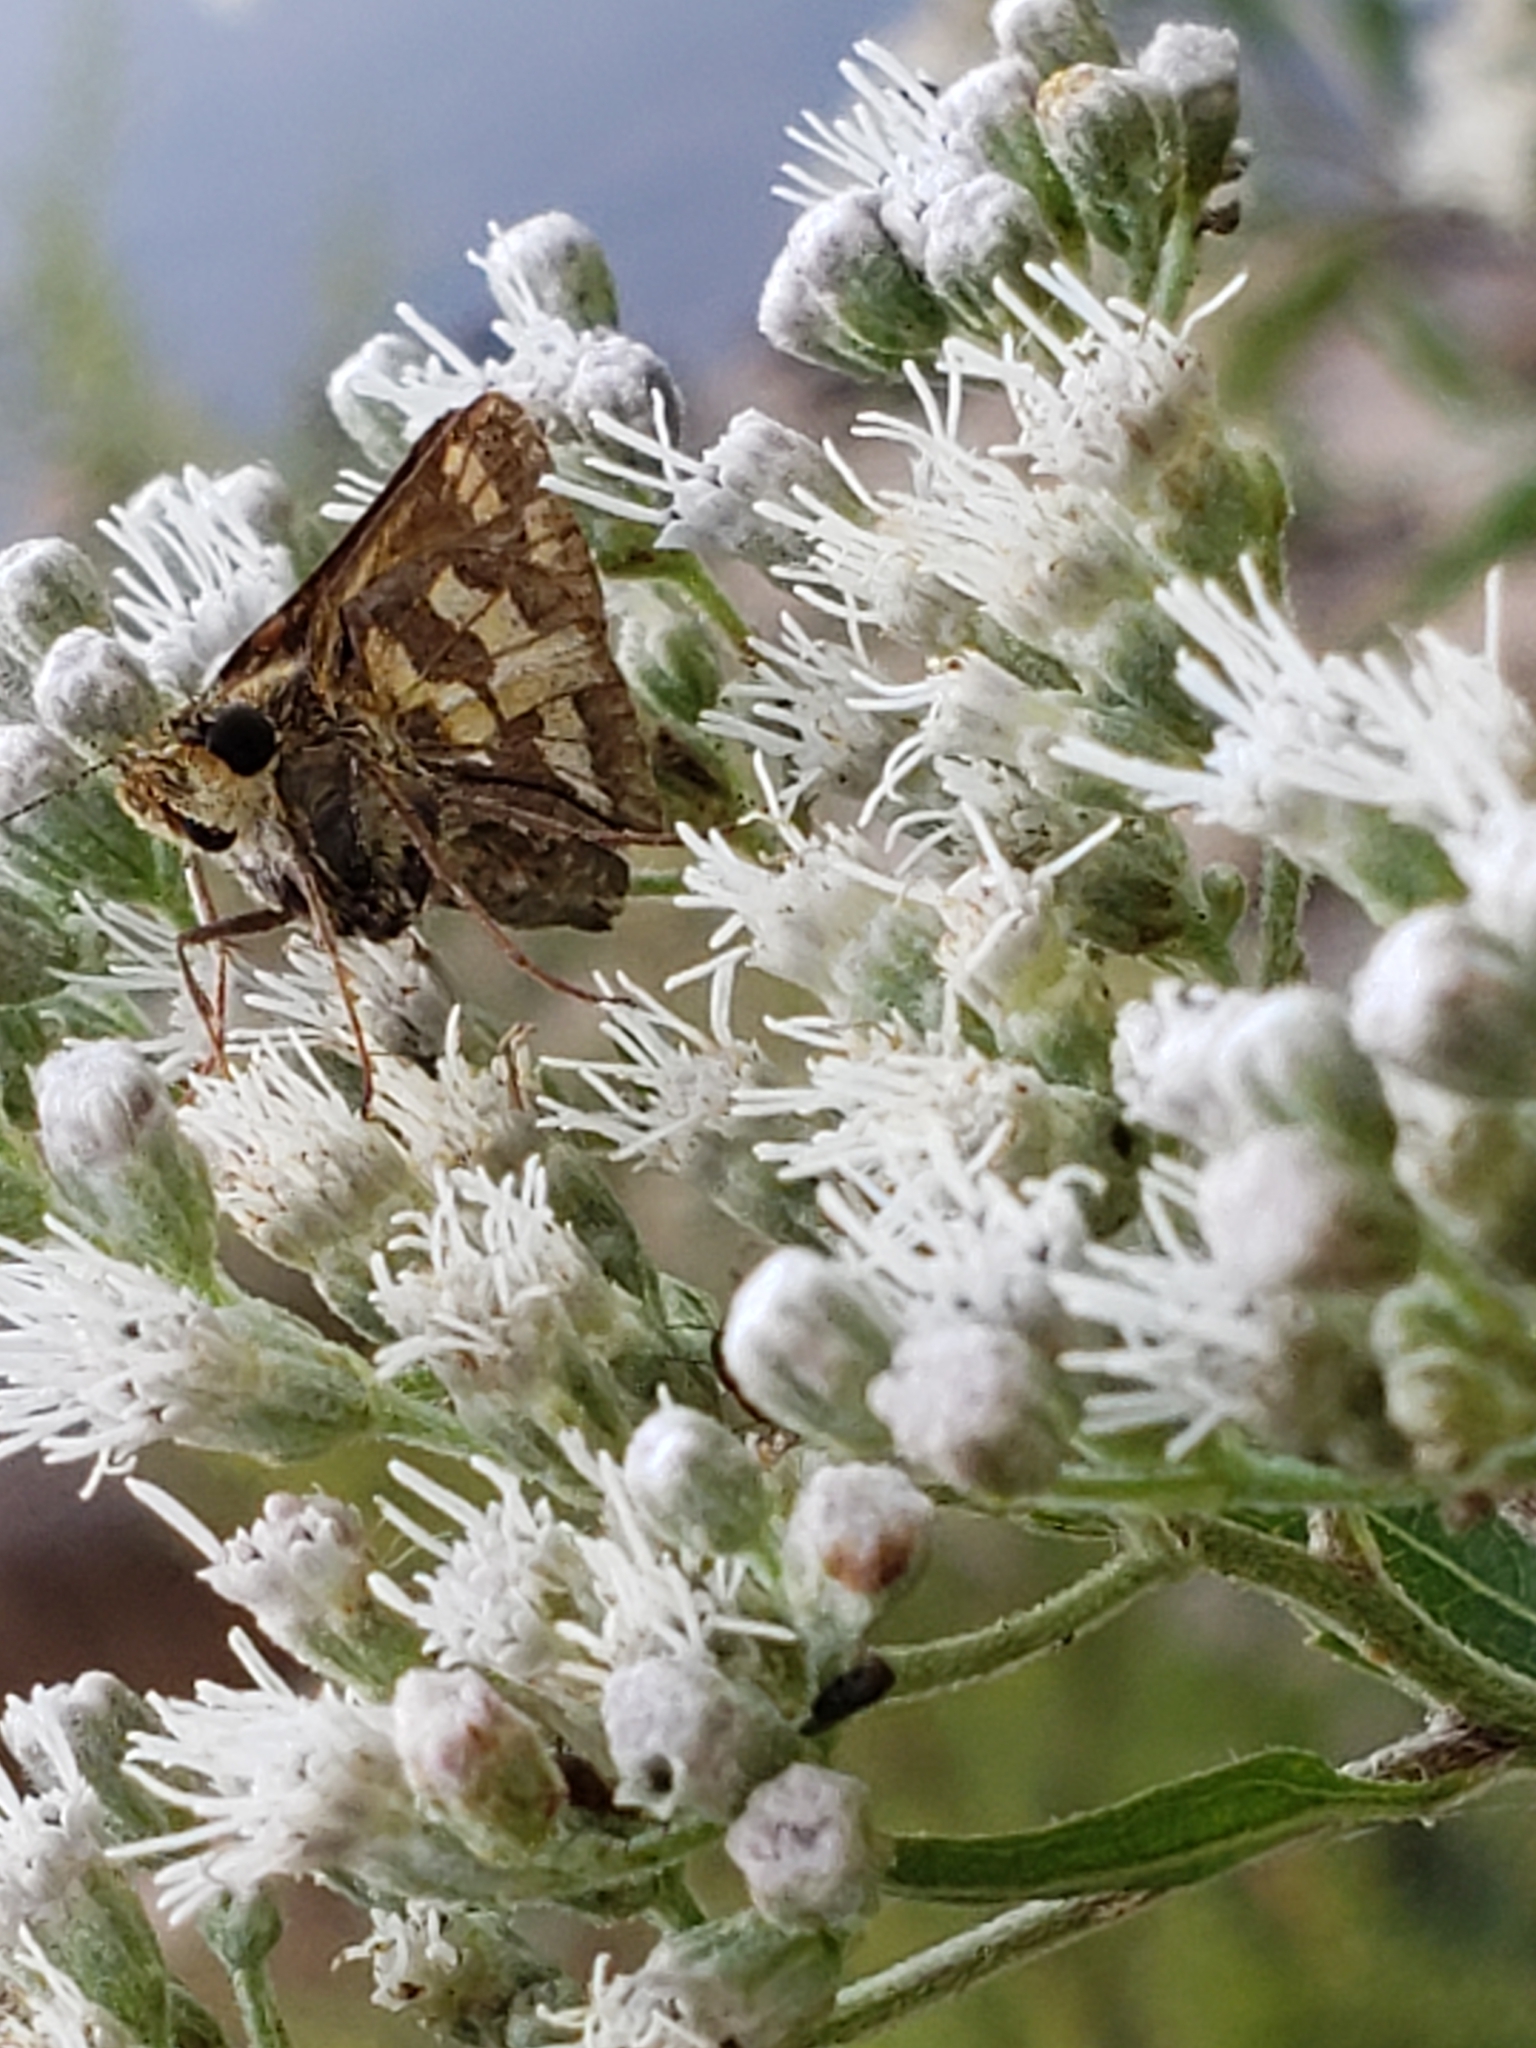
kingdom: Animalia
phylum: Arthropoda
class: Insecta
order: Lepidoptera
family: Hesperiidae
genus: Polites
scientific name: Polites coras
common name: Peck's skipper
